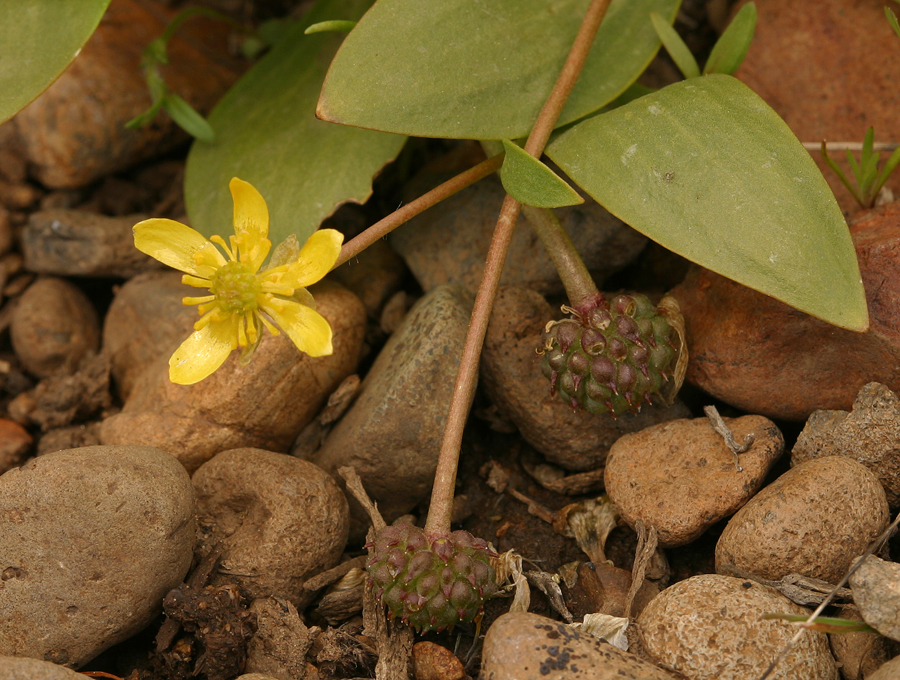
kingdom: Plantae
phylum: Tracheophyta
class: Magnoliopsida
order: Ranunculales
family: Ranunculaceae
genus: Ranunculus
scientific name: Ranunculus glaberrimus
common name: Sagebrush buttercup
